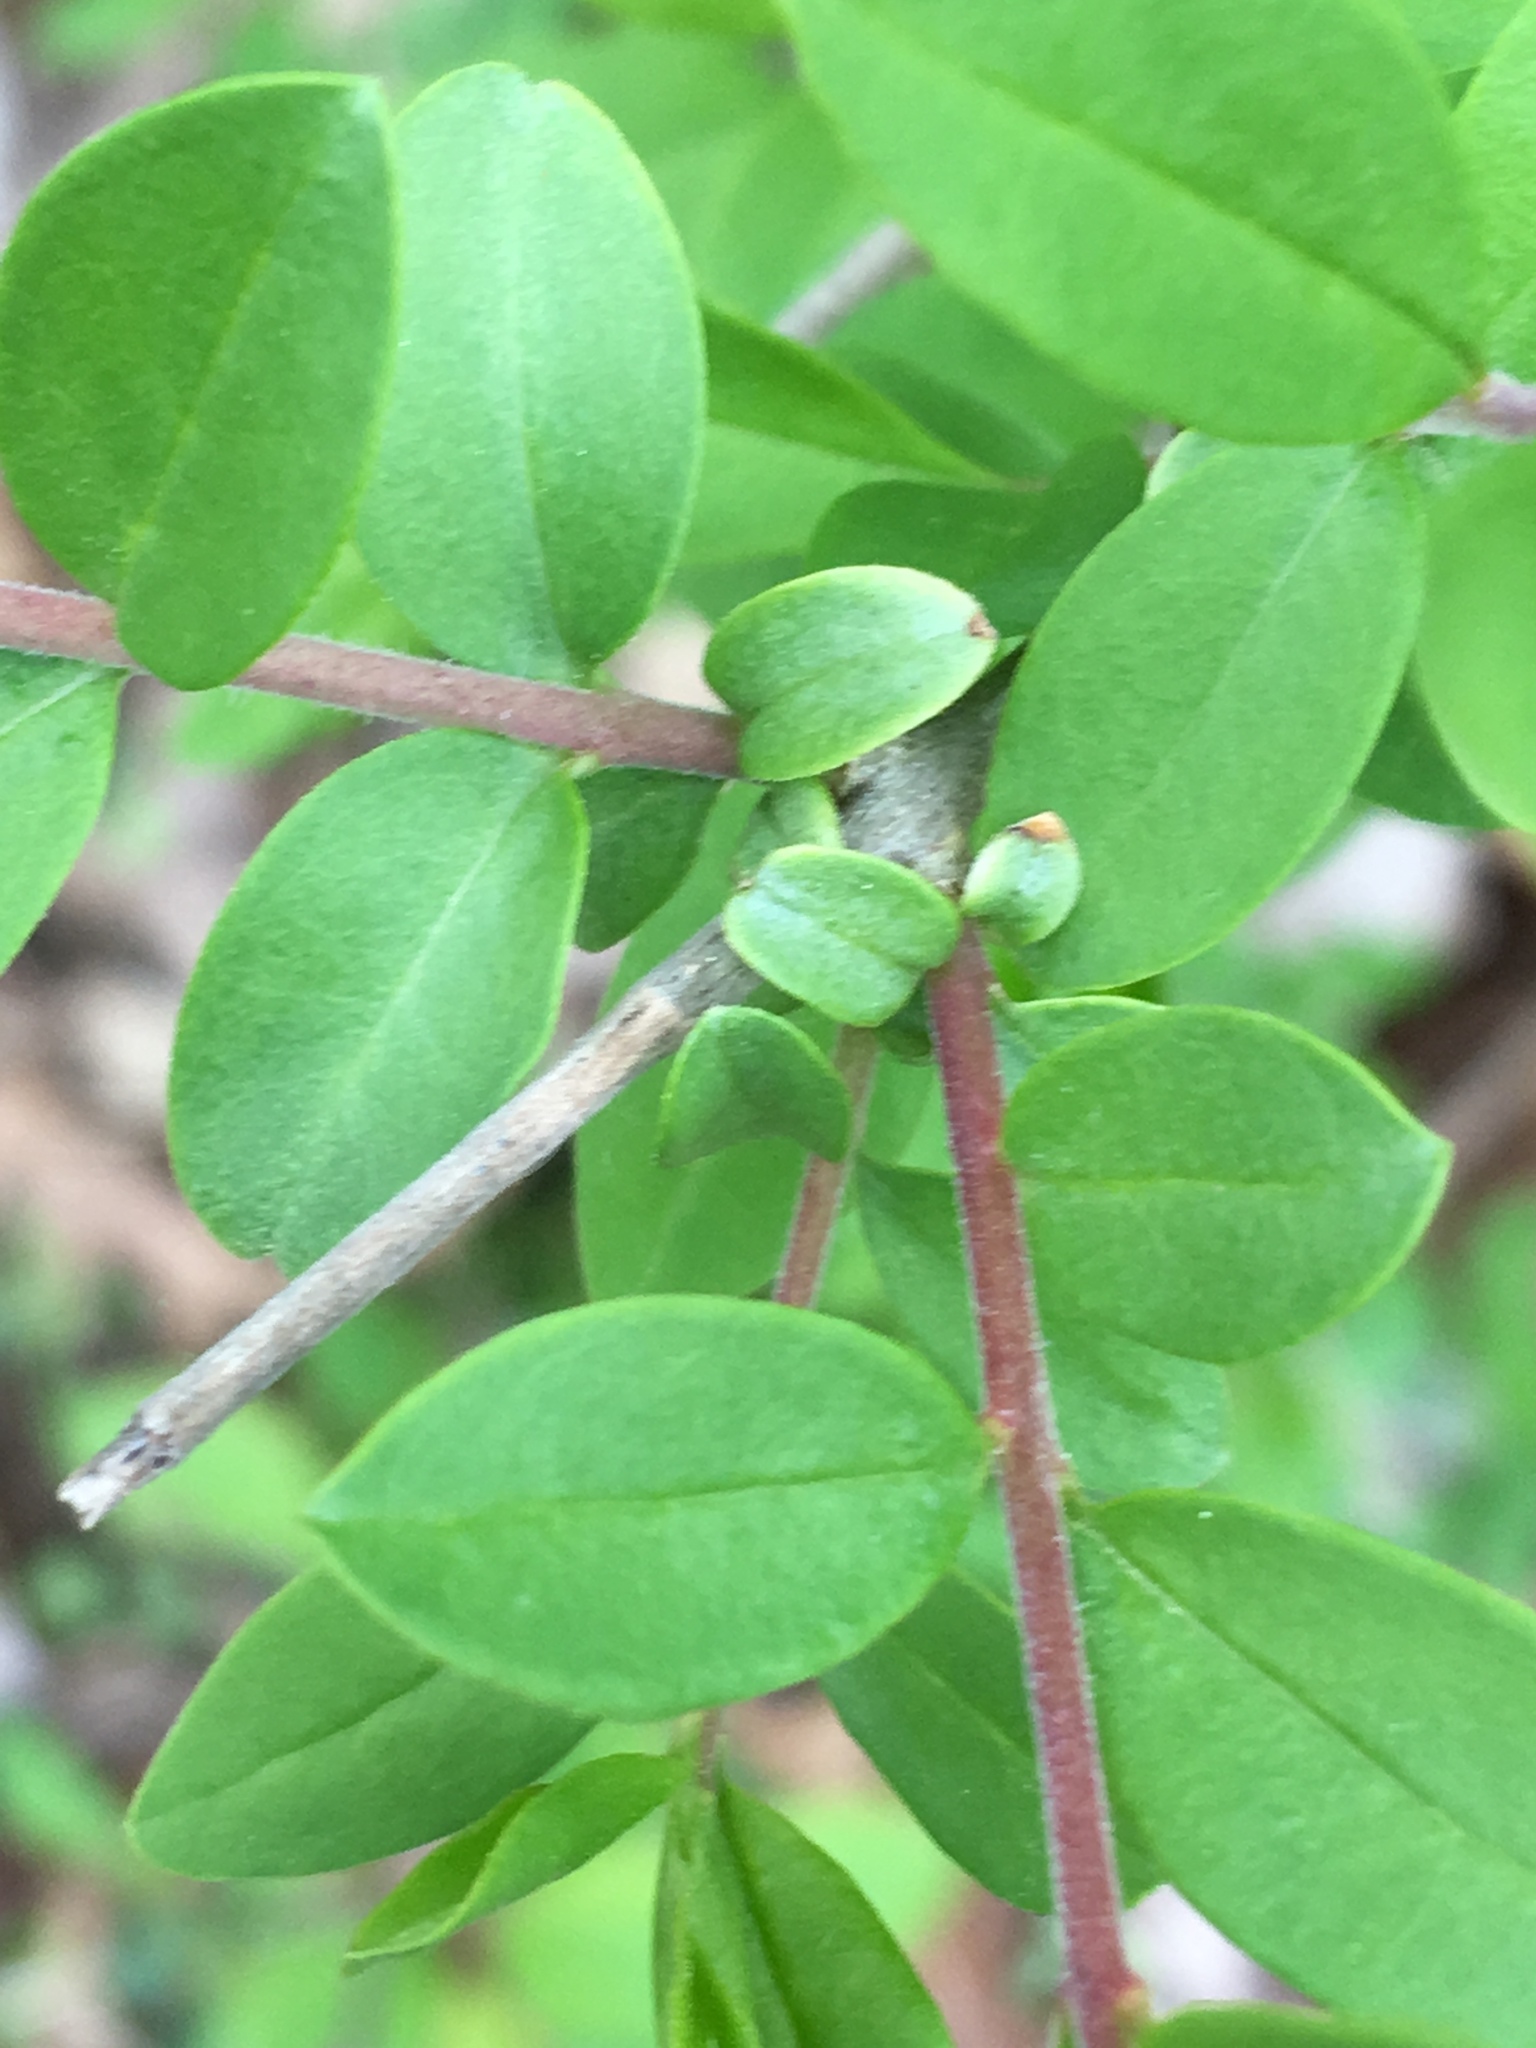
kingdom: Plantae
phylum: Tracheophyta
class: Magnoliopsida
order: Lamiales
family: Oleaceae
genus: Ligustrum
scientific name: Ligustrum obtusifolium
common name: Border privet
